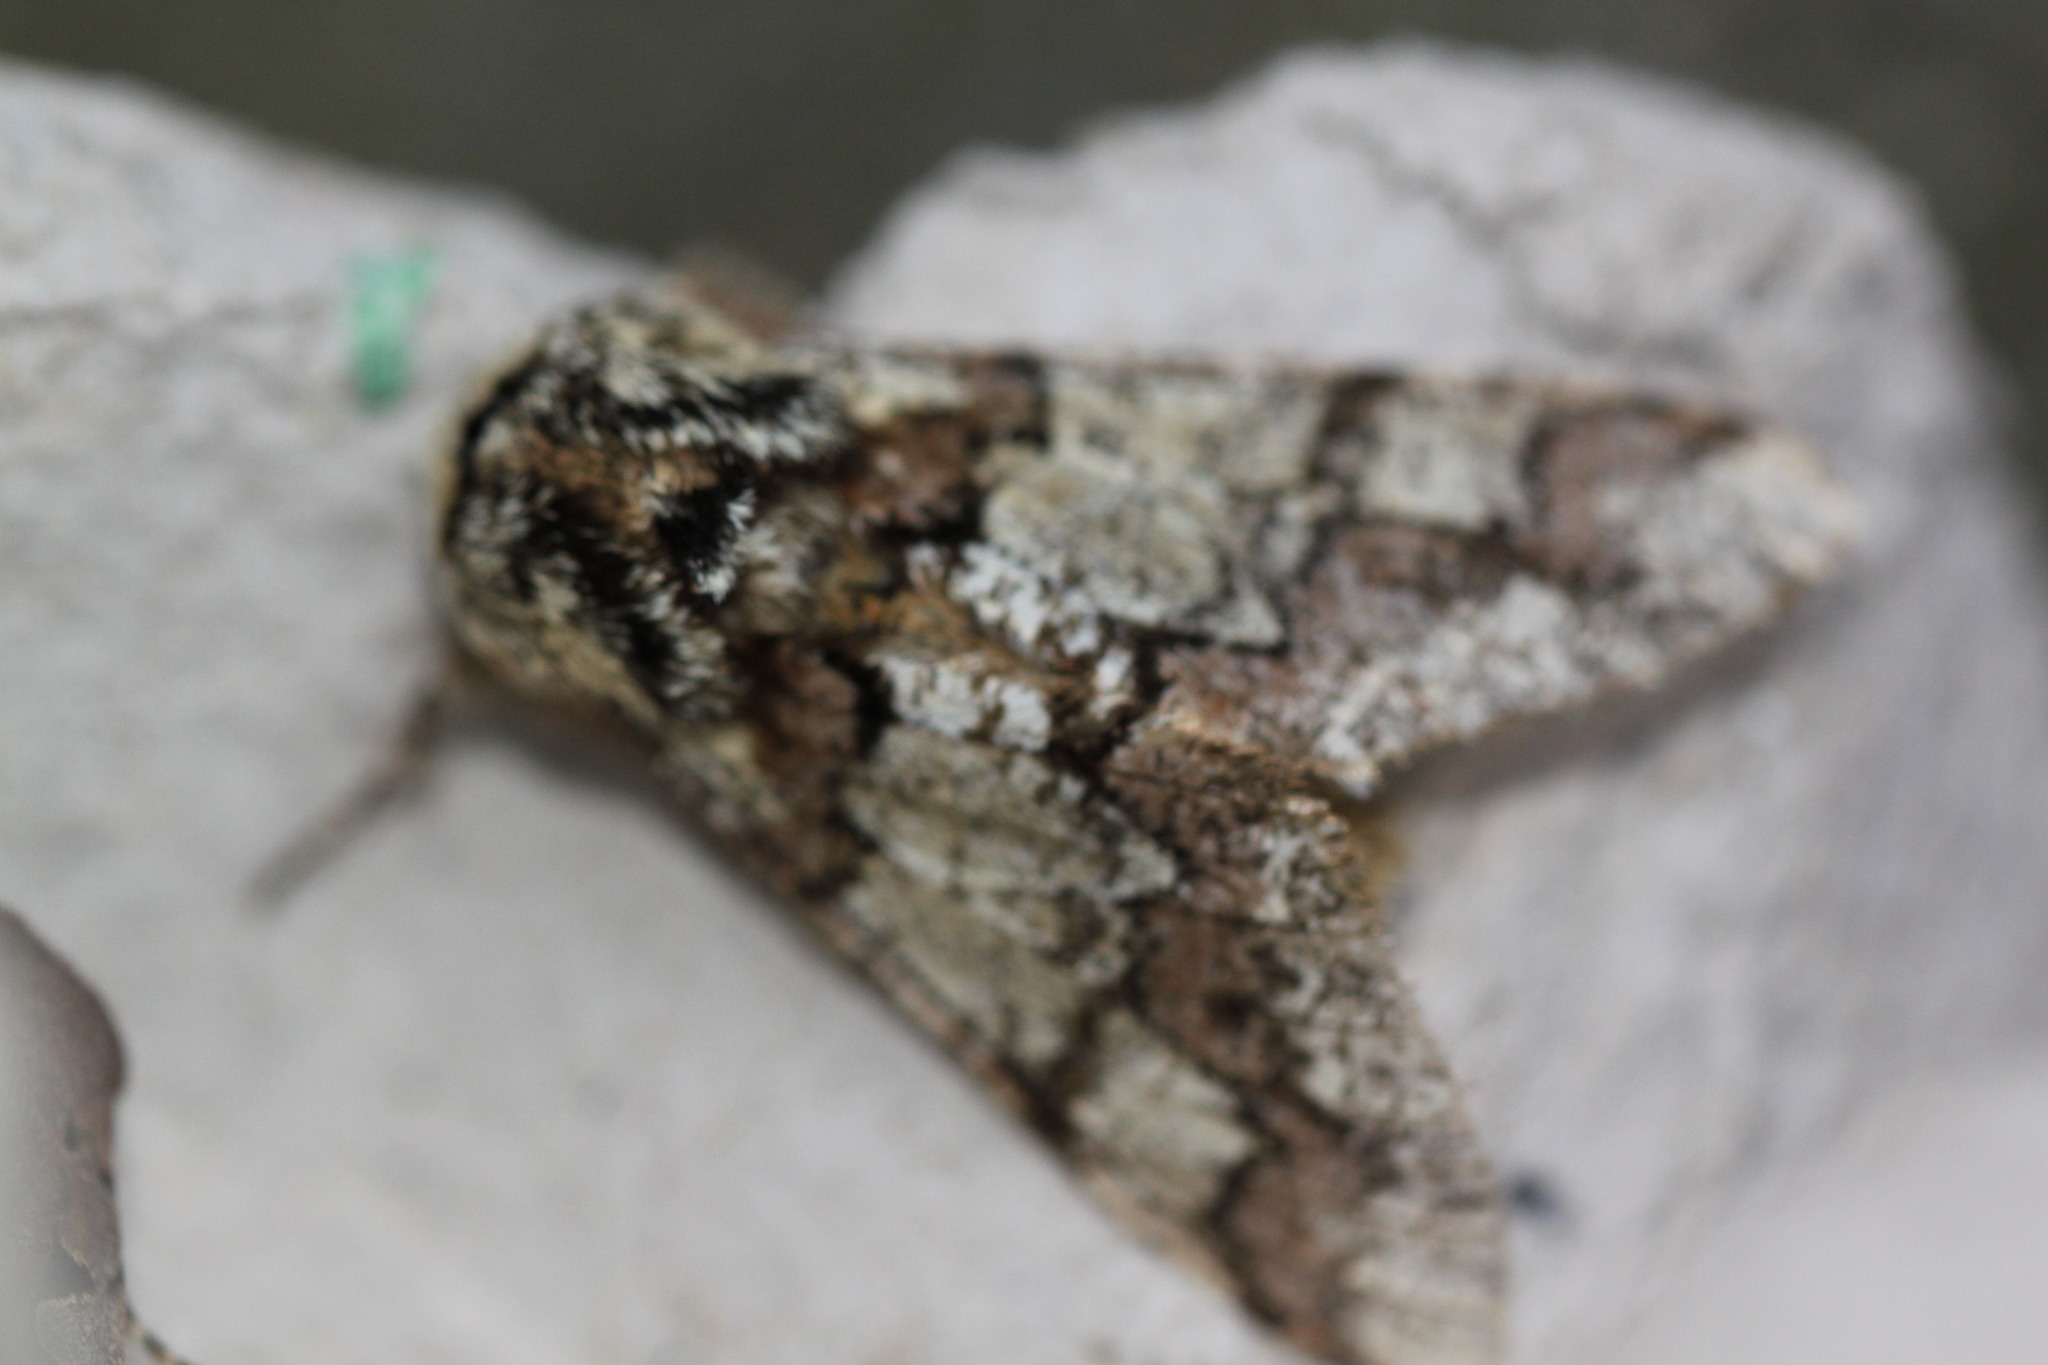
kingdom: Animalia
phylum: Arthropoda
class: Insecta
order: Lepidoptera
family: Geometridae
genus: Biston
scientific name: Biston strataria
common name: Oak beauty
